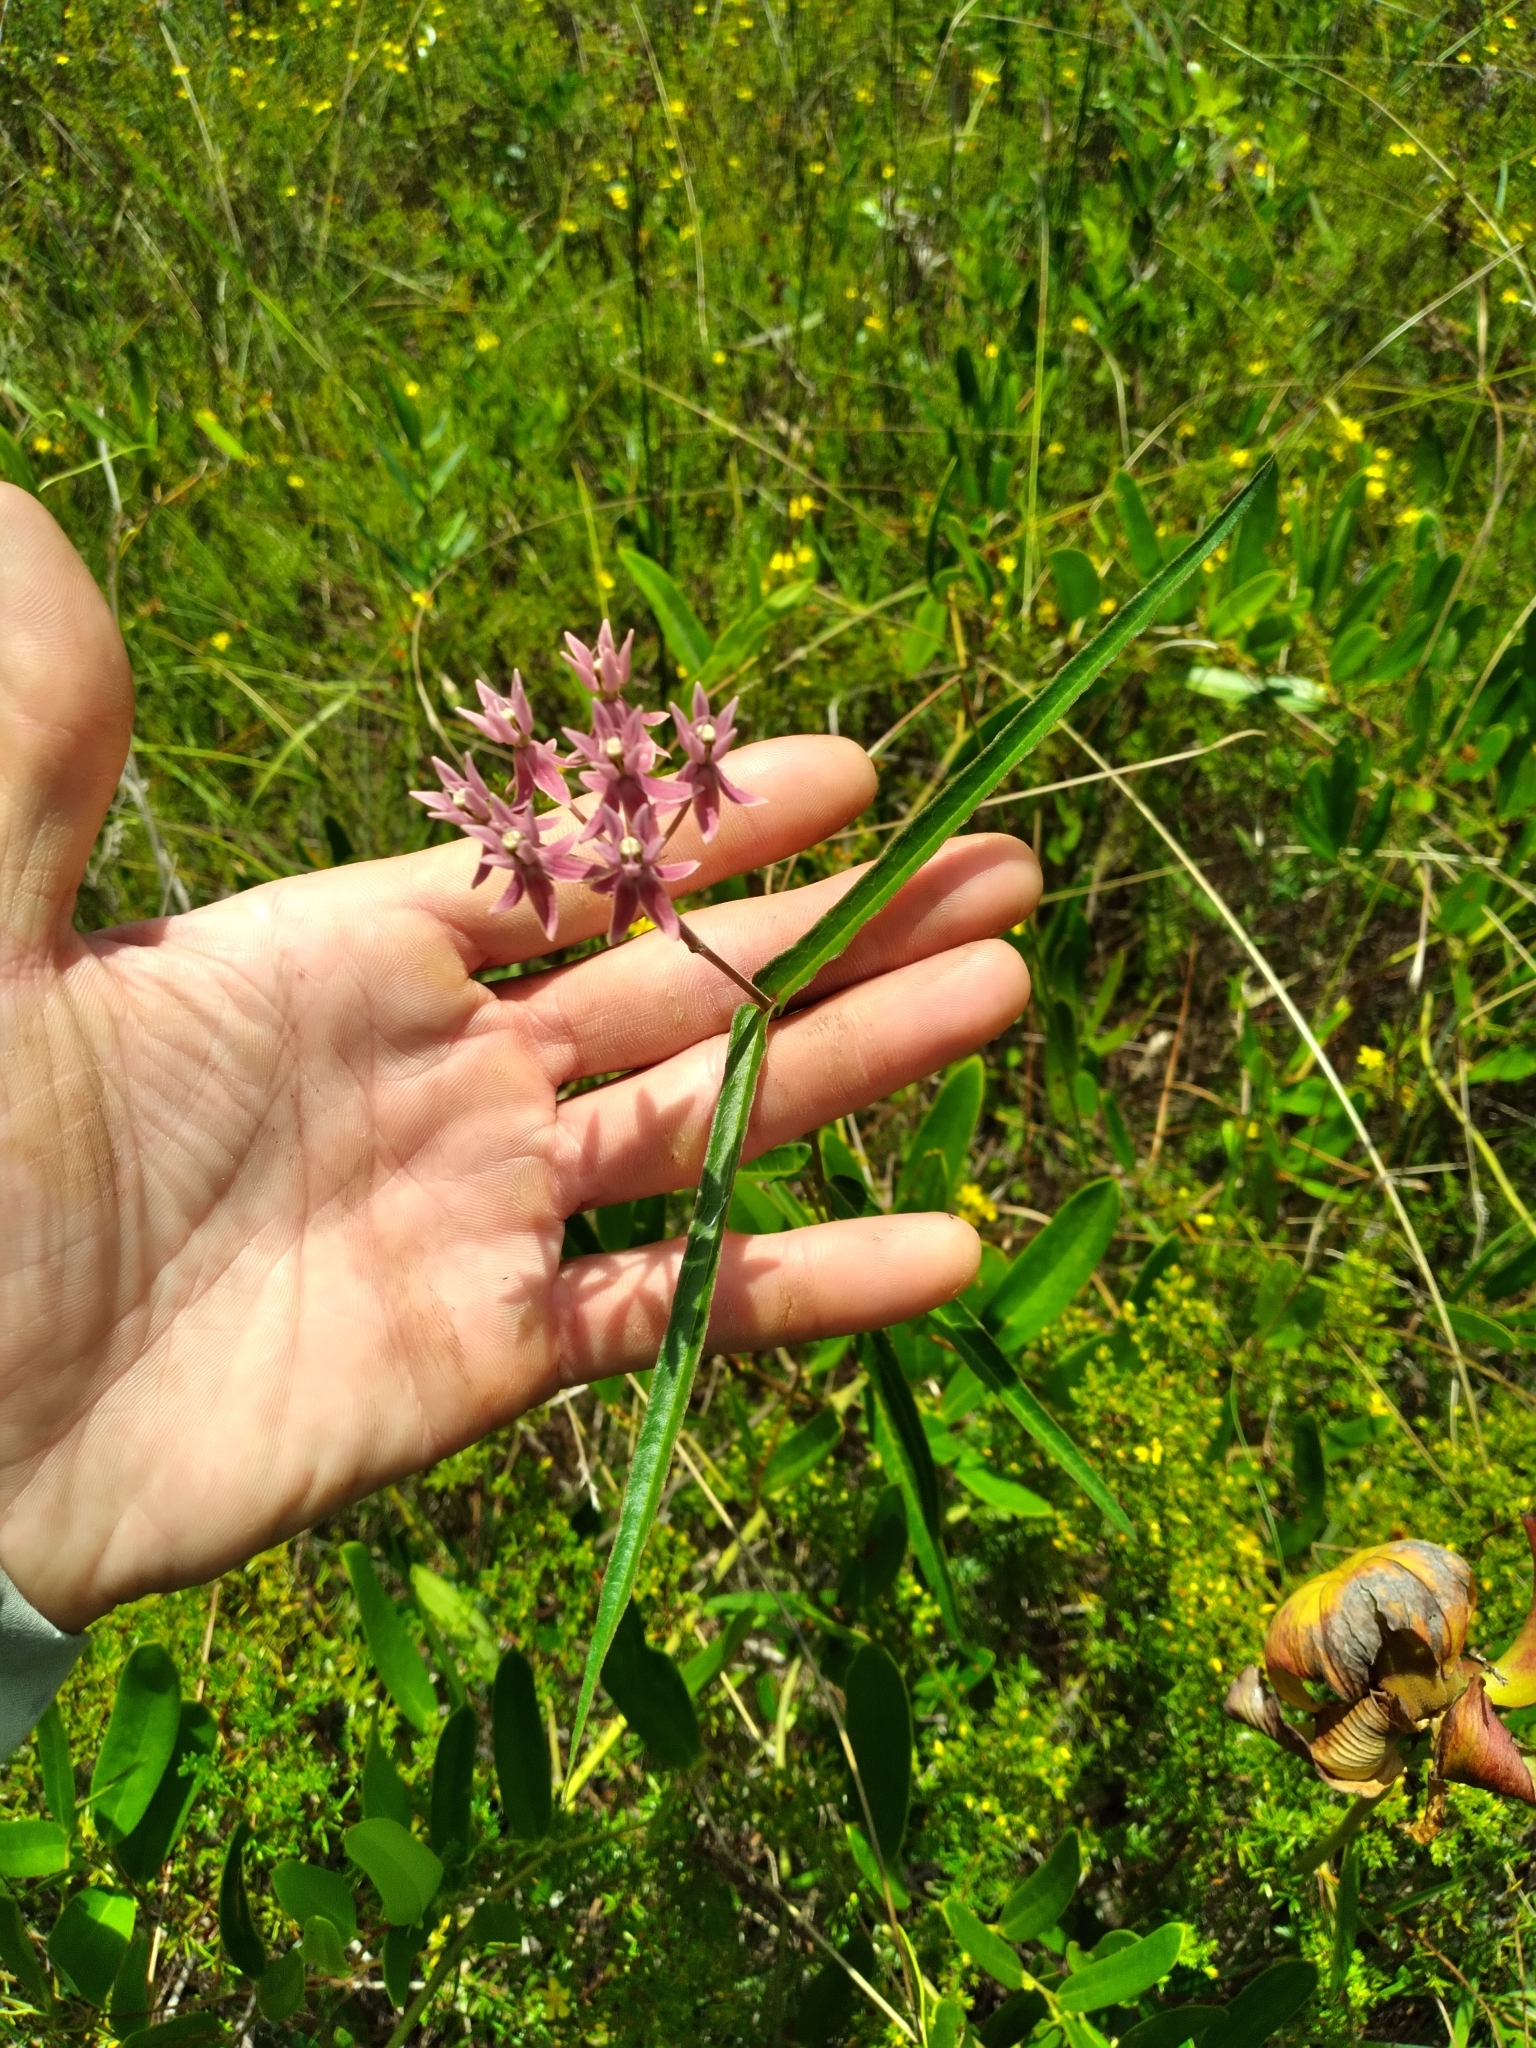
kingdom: Plantae
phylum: Tracheophyta
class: Magnoliopsida
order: Gentianales
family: Apocynaceae
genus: Asclepias
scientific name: Asclepias rubra
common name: Red milkweed
